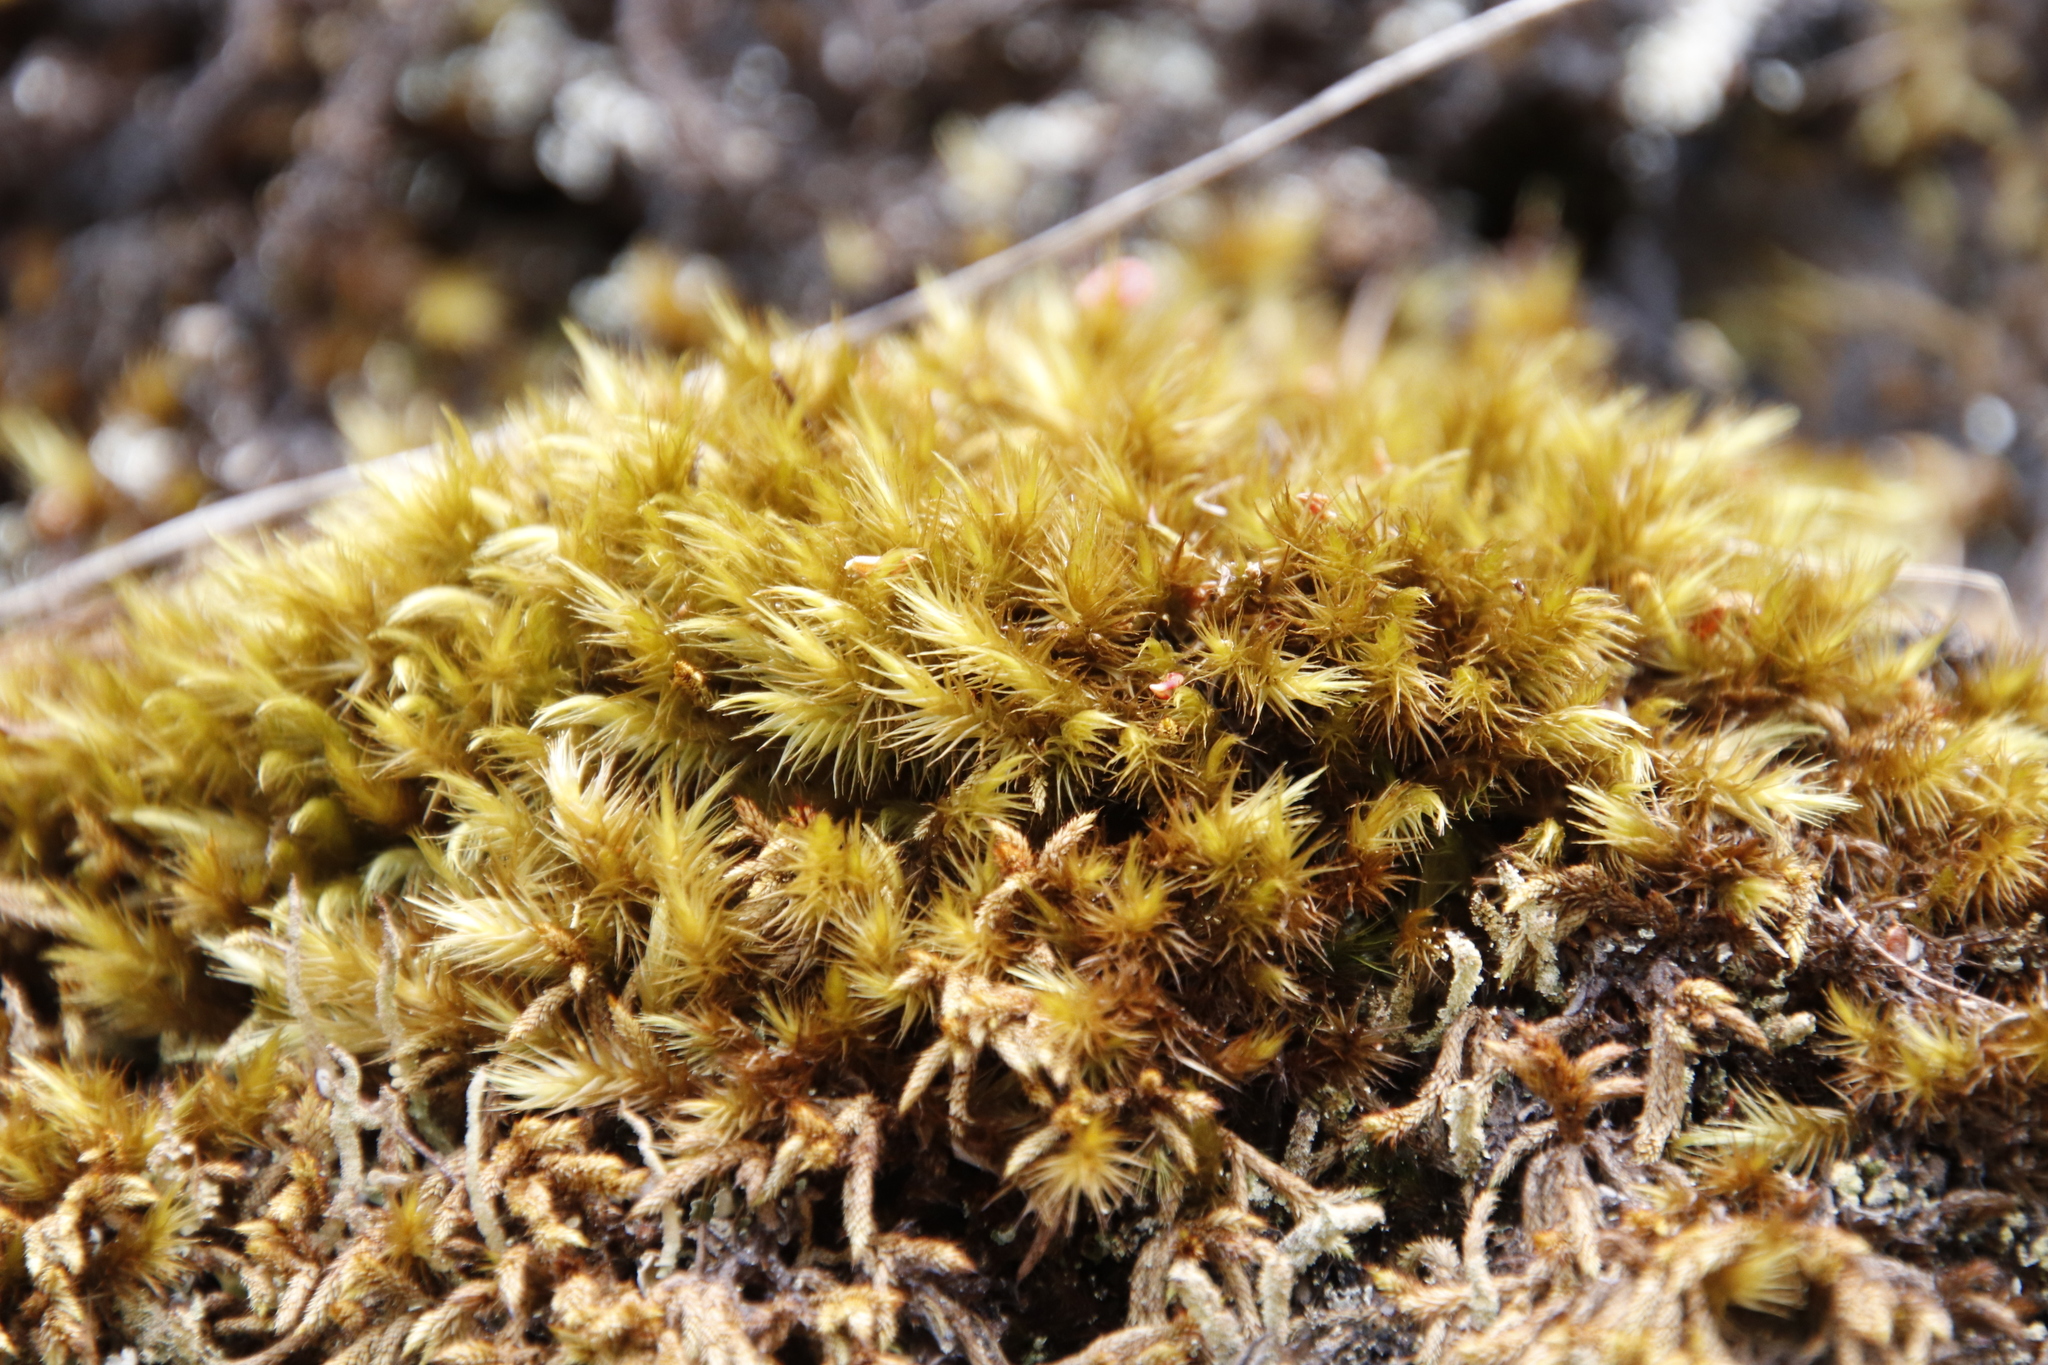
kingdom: Plantae
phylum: Bryophyta
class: Bryopsida
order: Hedwigiales
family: Hedwigiaceae
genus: Rhacocarpus
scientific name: Rhacocarpus purpurascens
